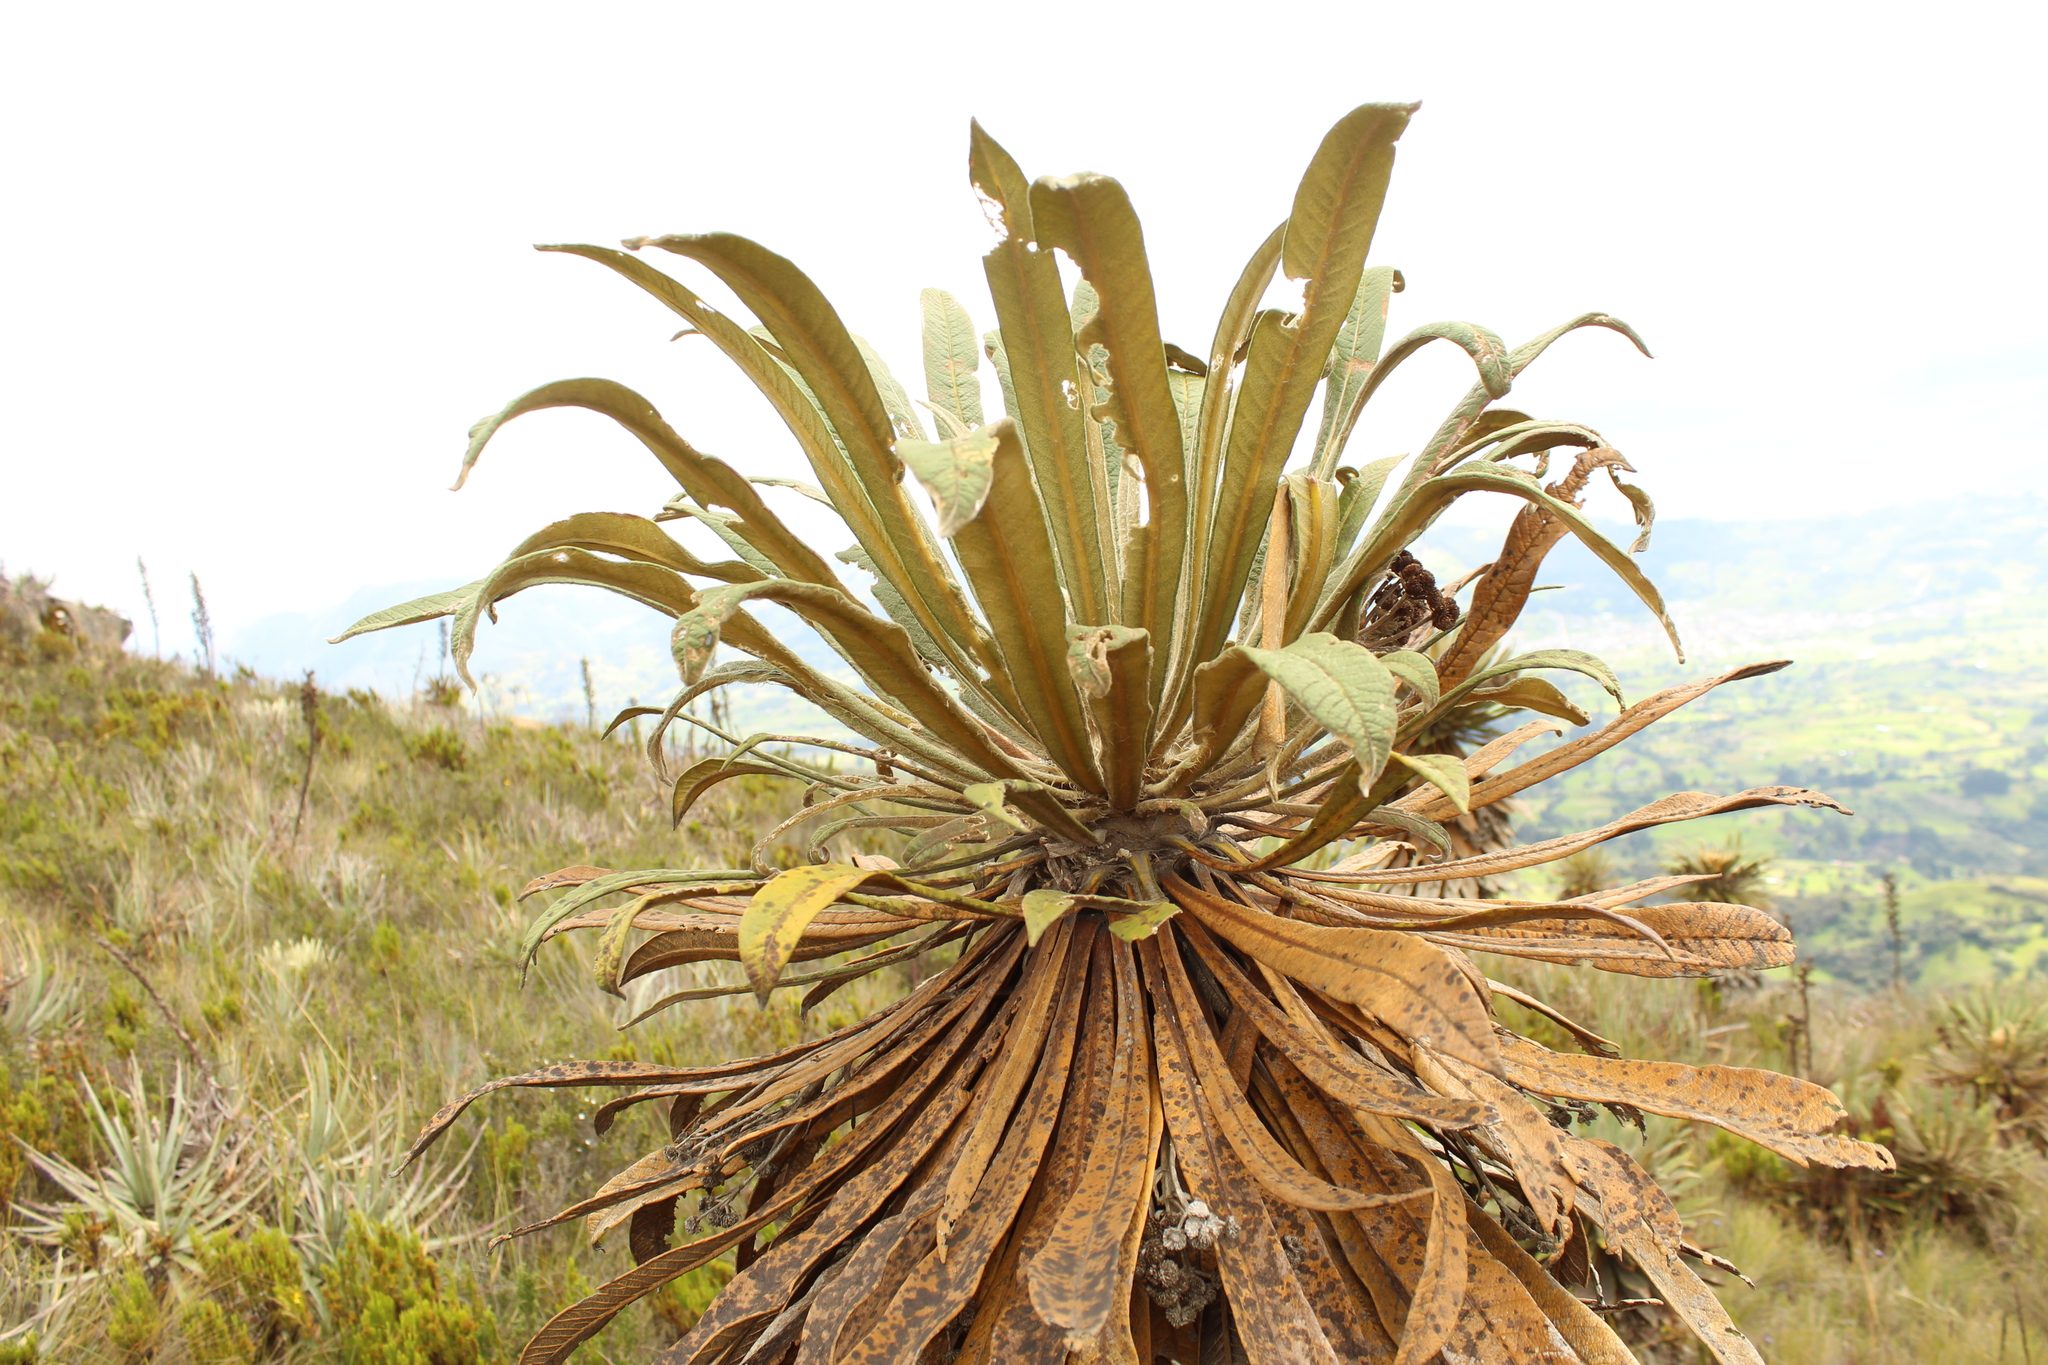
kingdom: Plantae
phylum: Tracheophyta
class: Magnoliopsida
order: Asterales
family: Asteraceae
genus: Espeletia
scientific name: Espeletia guacharaca
